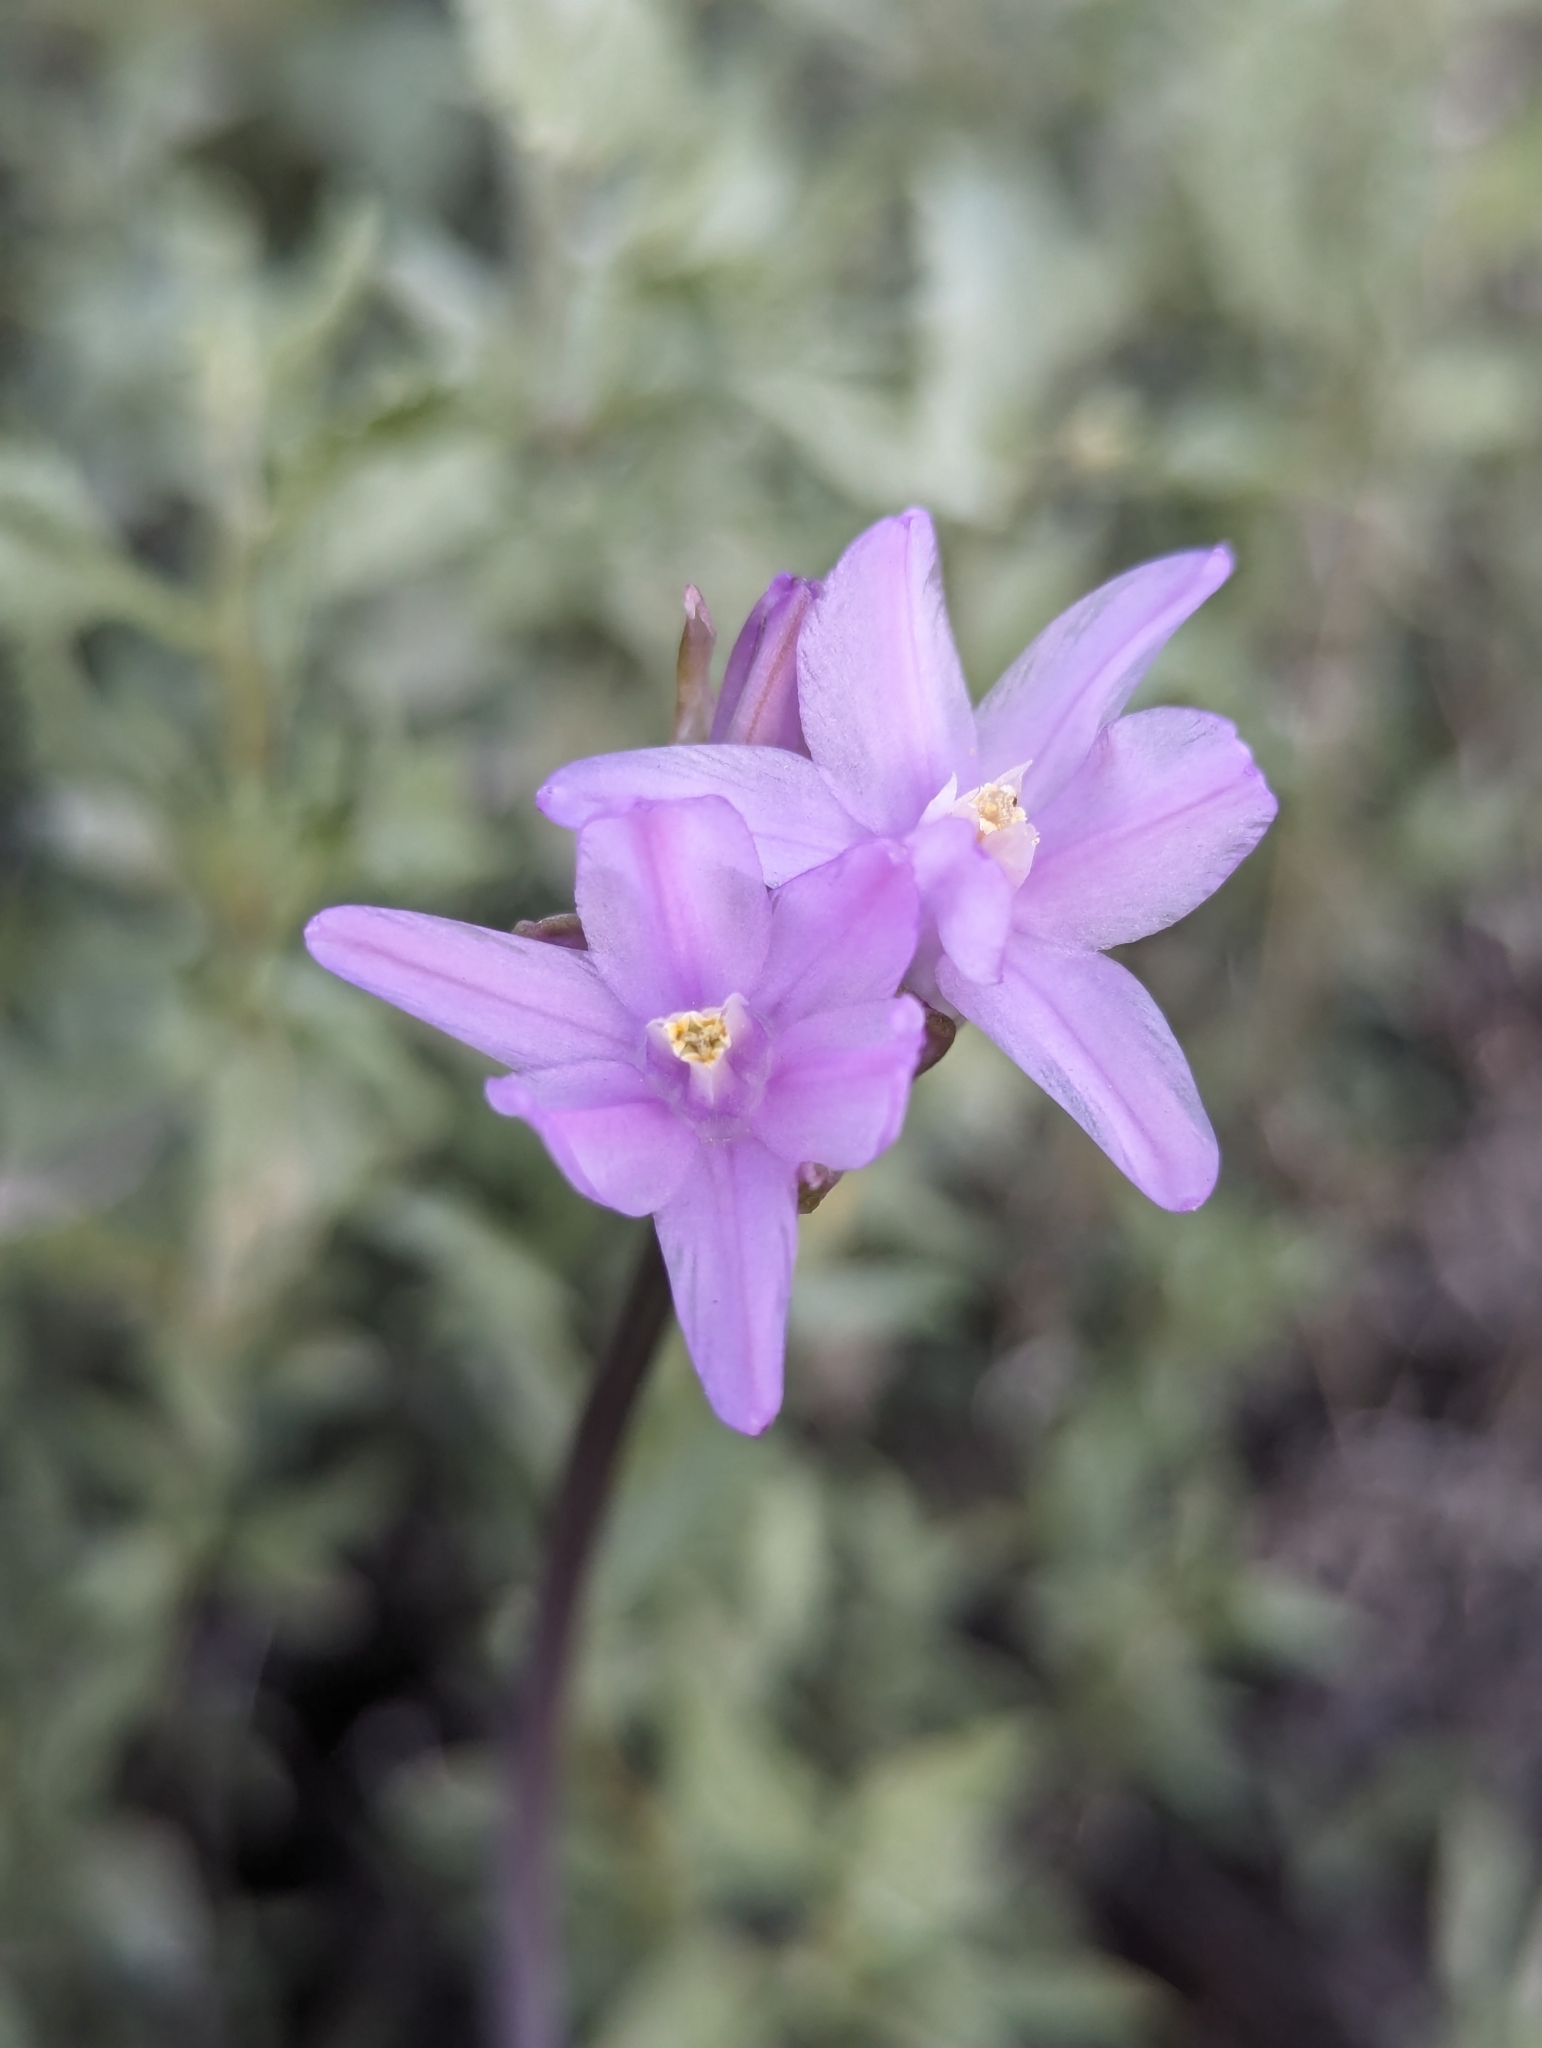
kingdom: Plantae
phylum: Tracheophyta
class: Liliopsida
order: Asparagales
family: Asparagaceae
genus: Dipterostemon
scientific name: Dipterostemon capitatus
